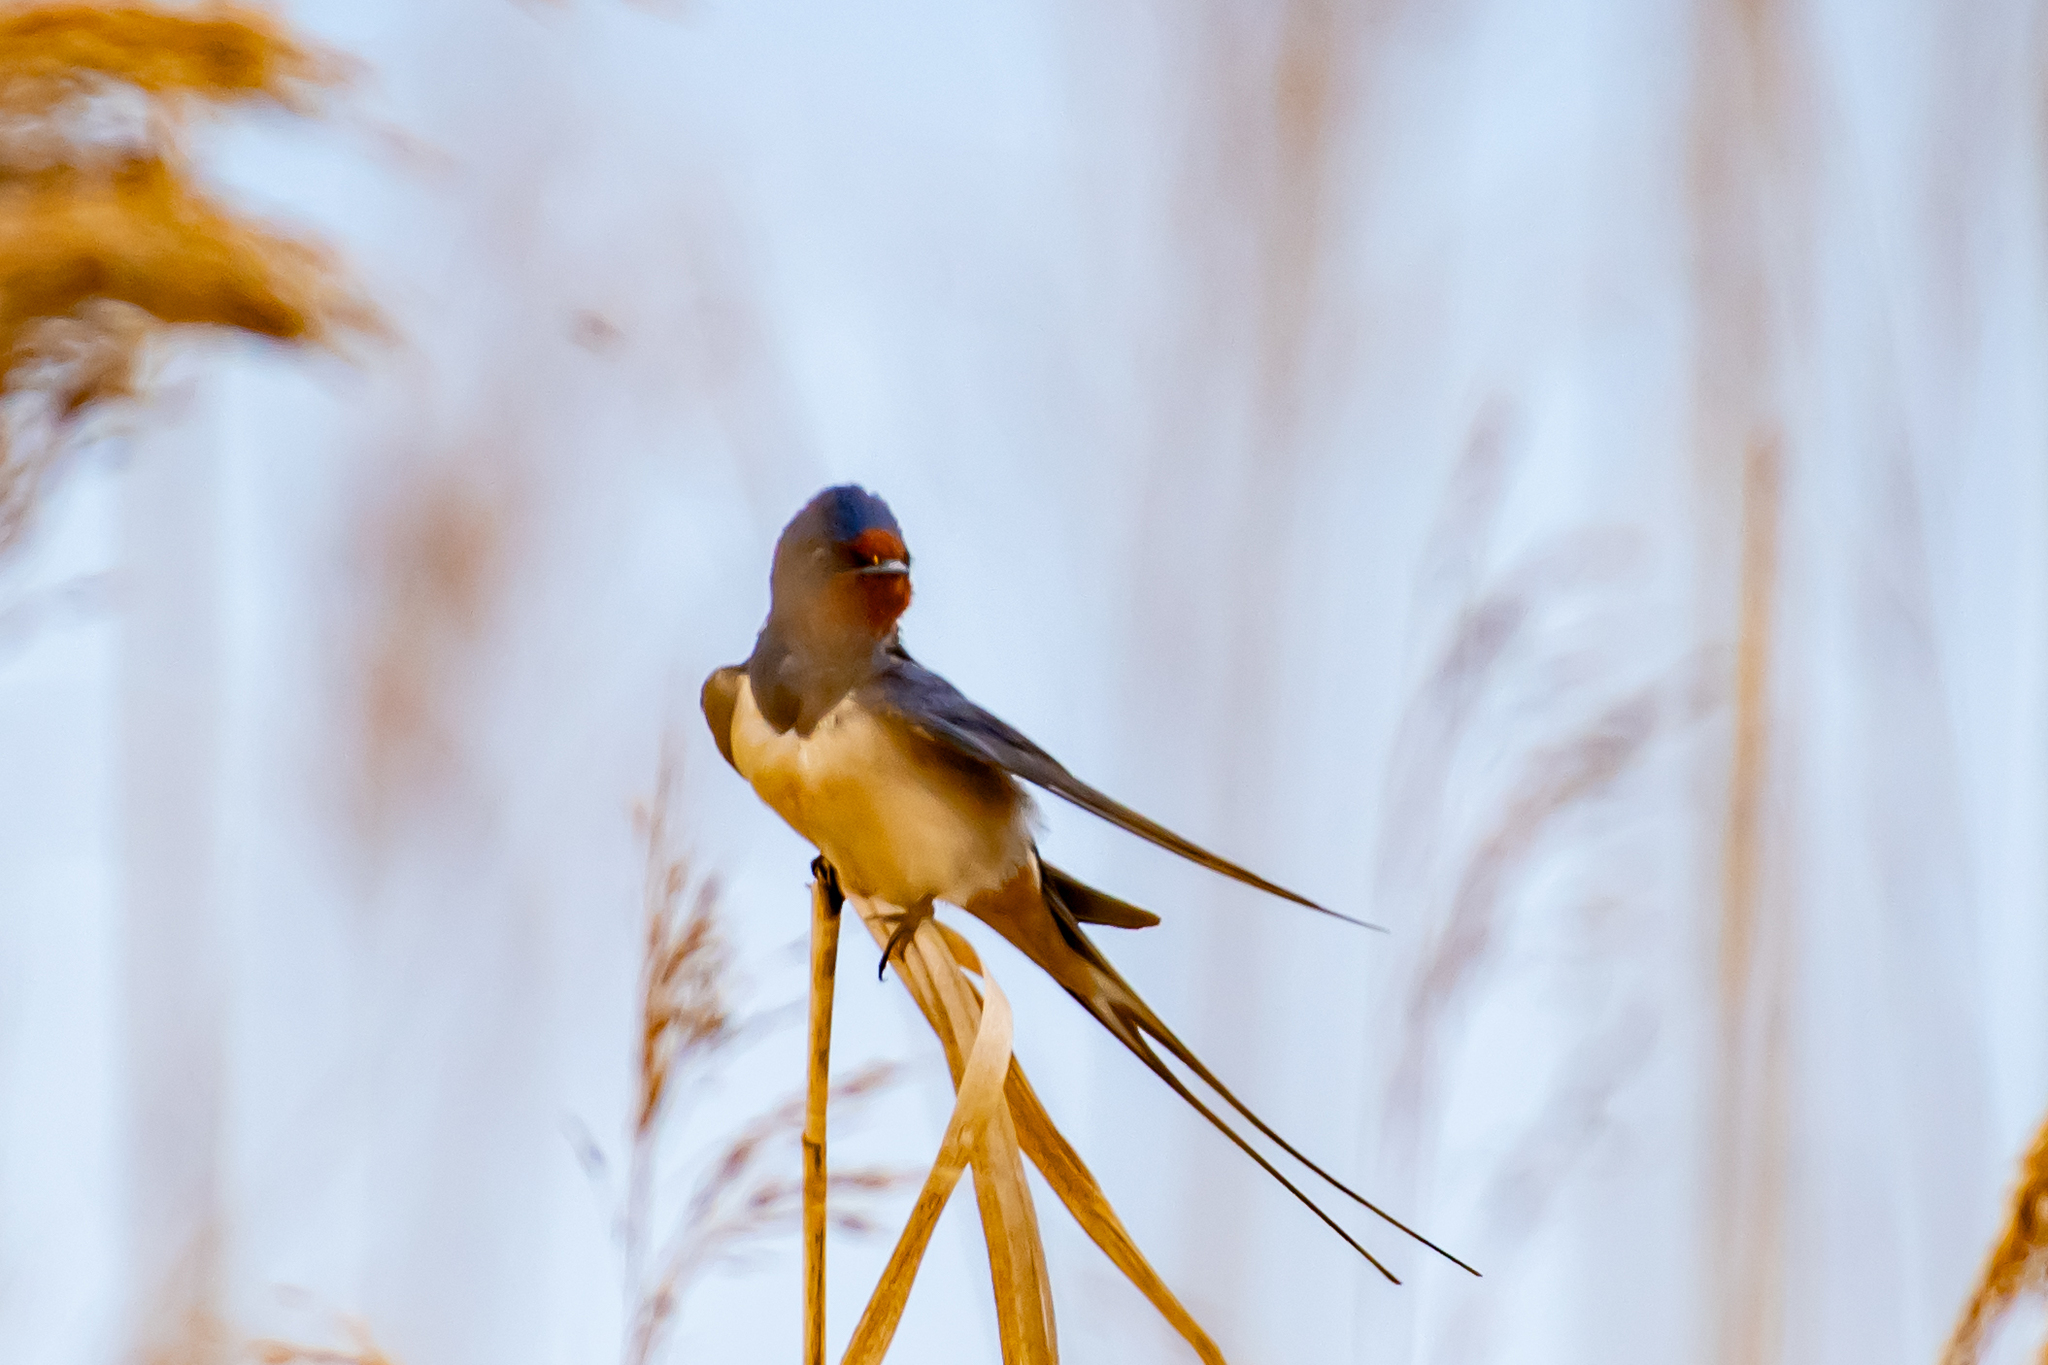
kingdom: Animalia
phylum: Chordata
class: Aves
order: Passeriformes
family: Hirundinidae
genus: Hirundo
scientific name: Hirundo rustica
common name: Barn swallow
